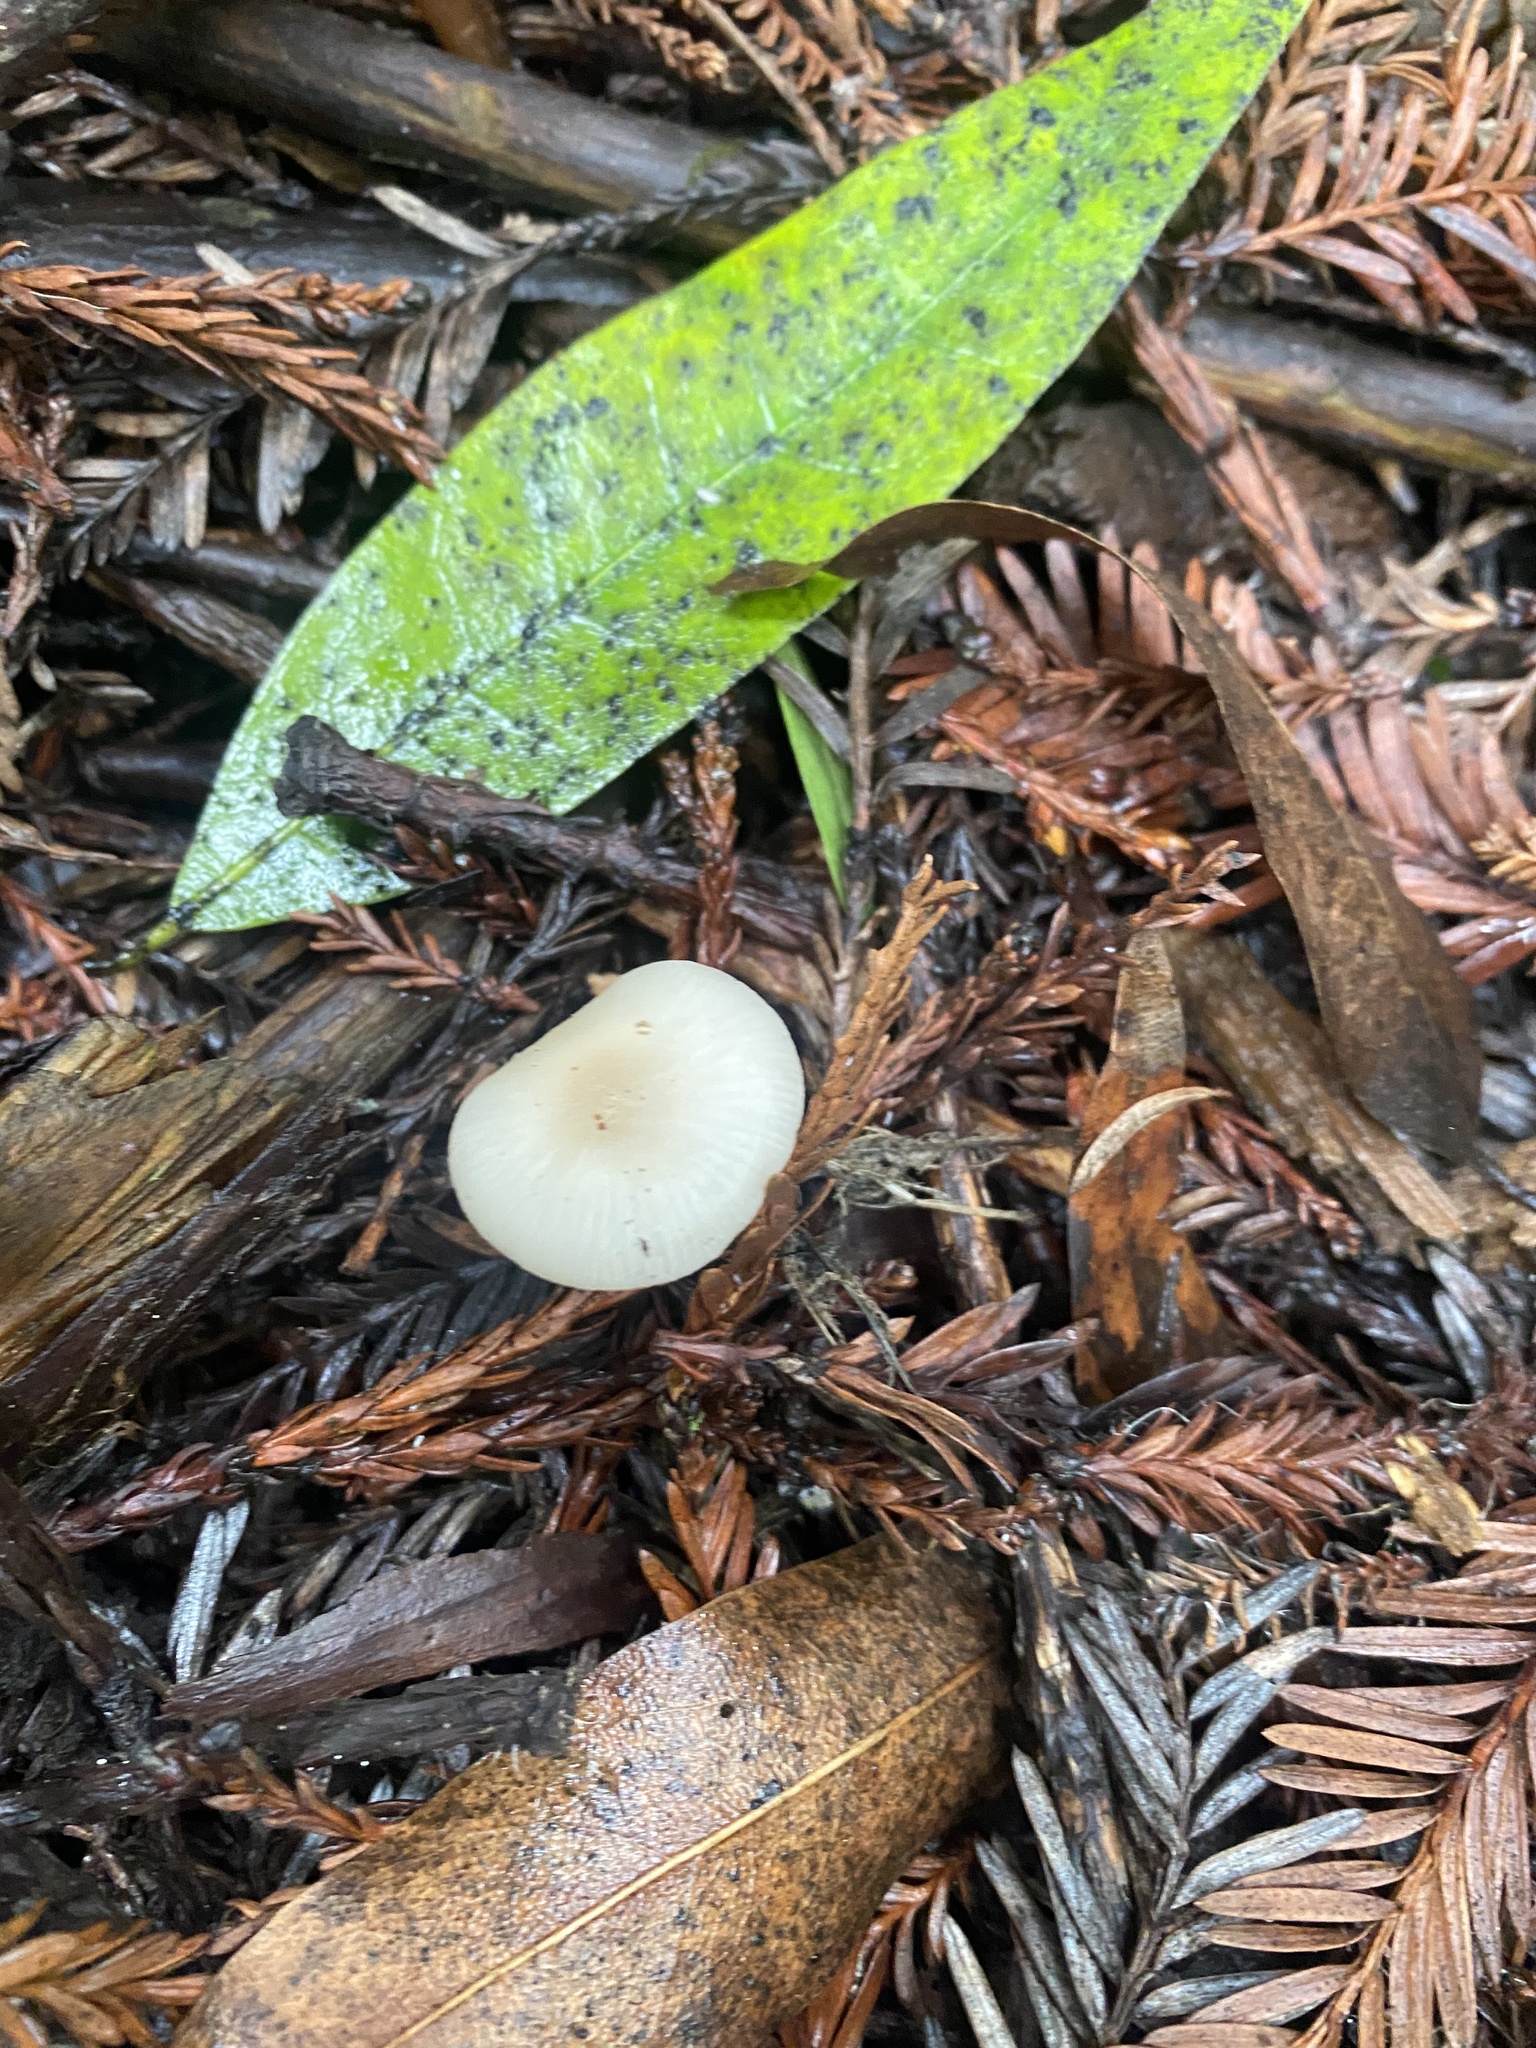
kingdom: Fungi
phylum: Basidiomycota
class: Agaricomycetes
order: Agaricales
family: Tricholomataceae
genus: Clitocybe
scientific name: Clitocybe fragrans
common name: Fragrant funnel
